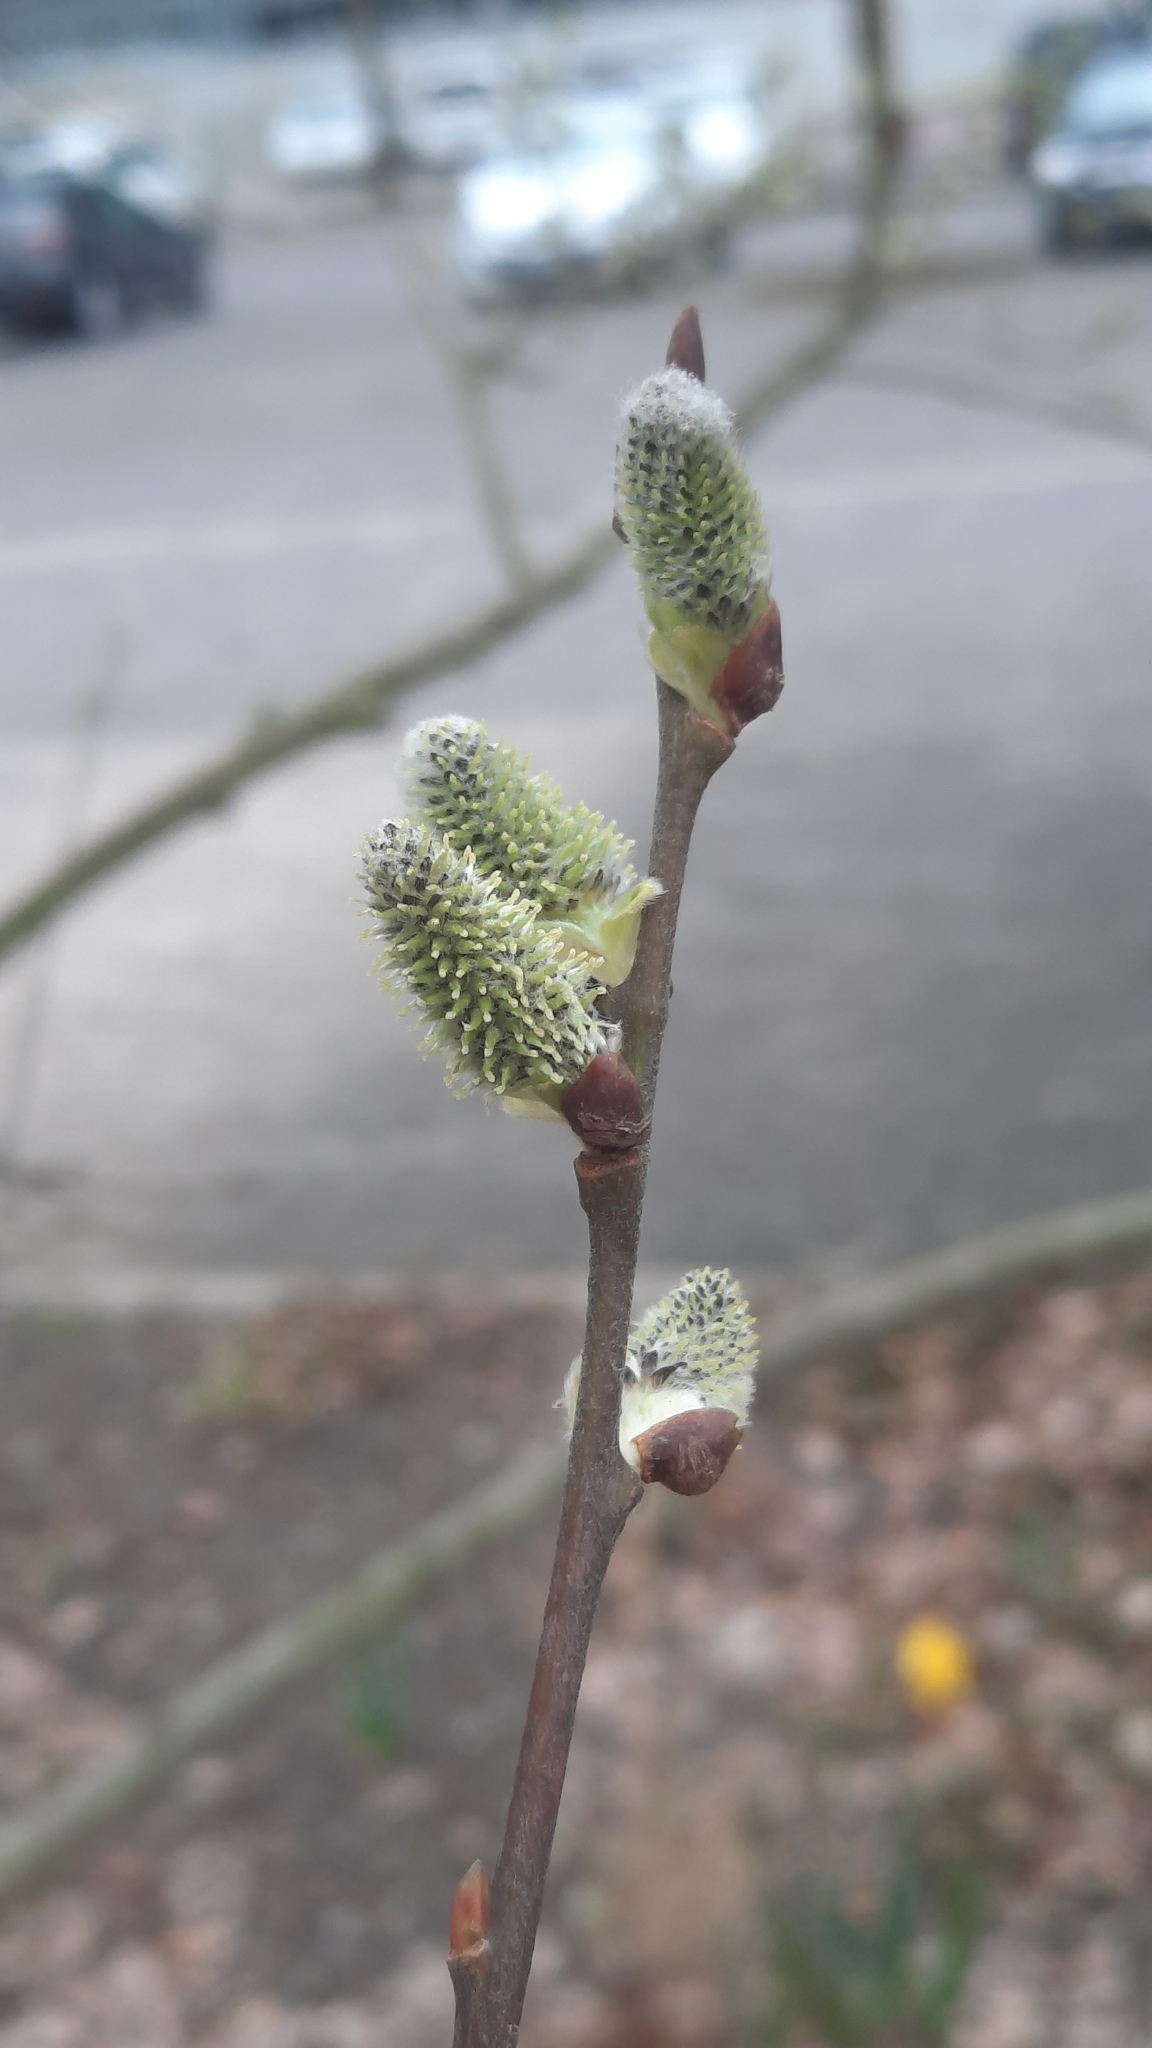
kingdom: Plantae
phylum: Tracheophyta
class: Magnoliopsida
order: Malpighiales
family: Salicaceae
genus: Salix
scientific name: Salix caprea
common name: Goat willow
